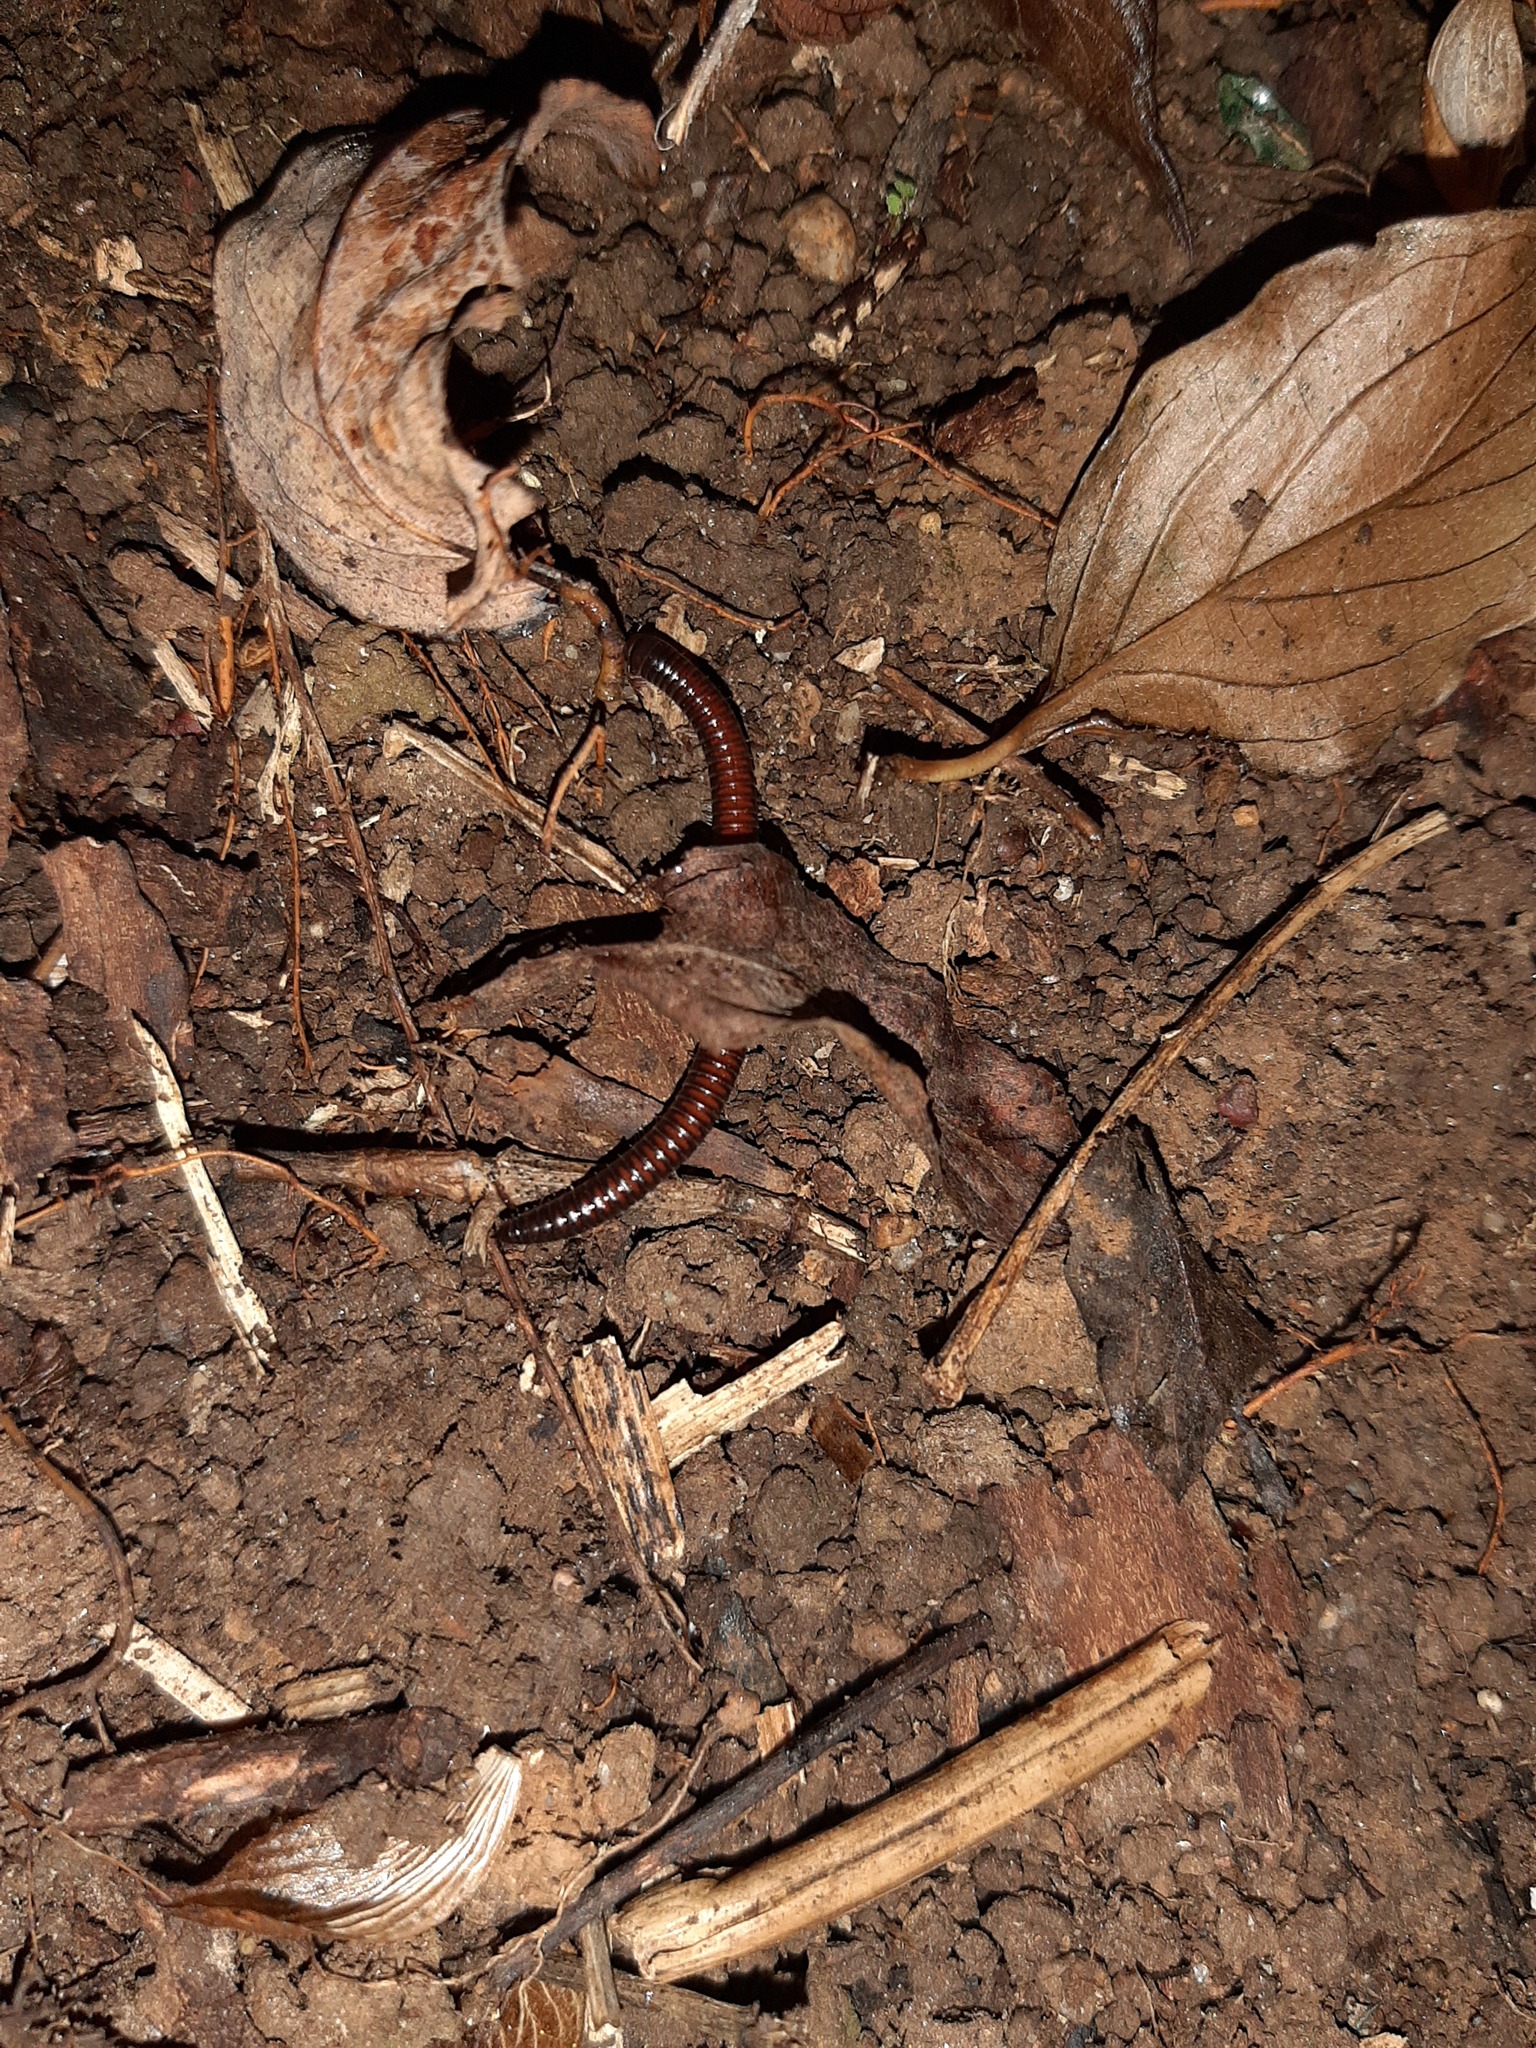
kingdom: Animalia
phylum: Arthropoda
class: Diplopoda
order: Julida
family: Julidae
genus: Ophyiulus
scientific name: Ophyiulus rubrodorsalis
